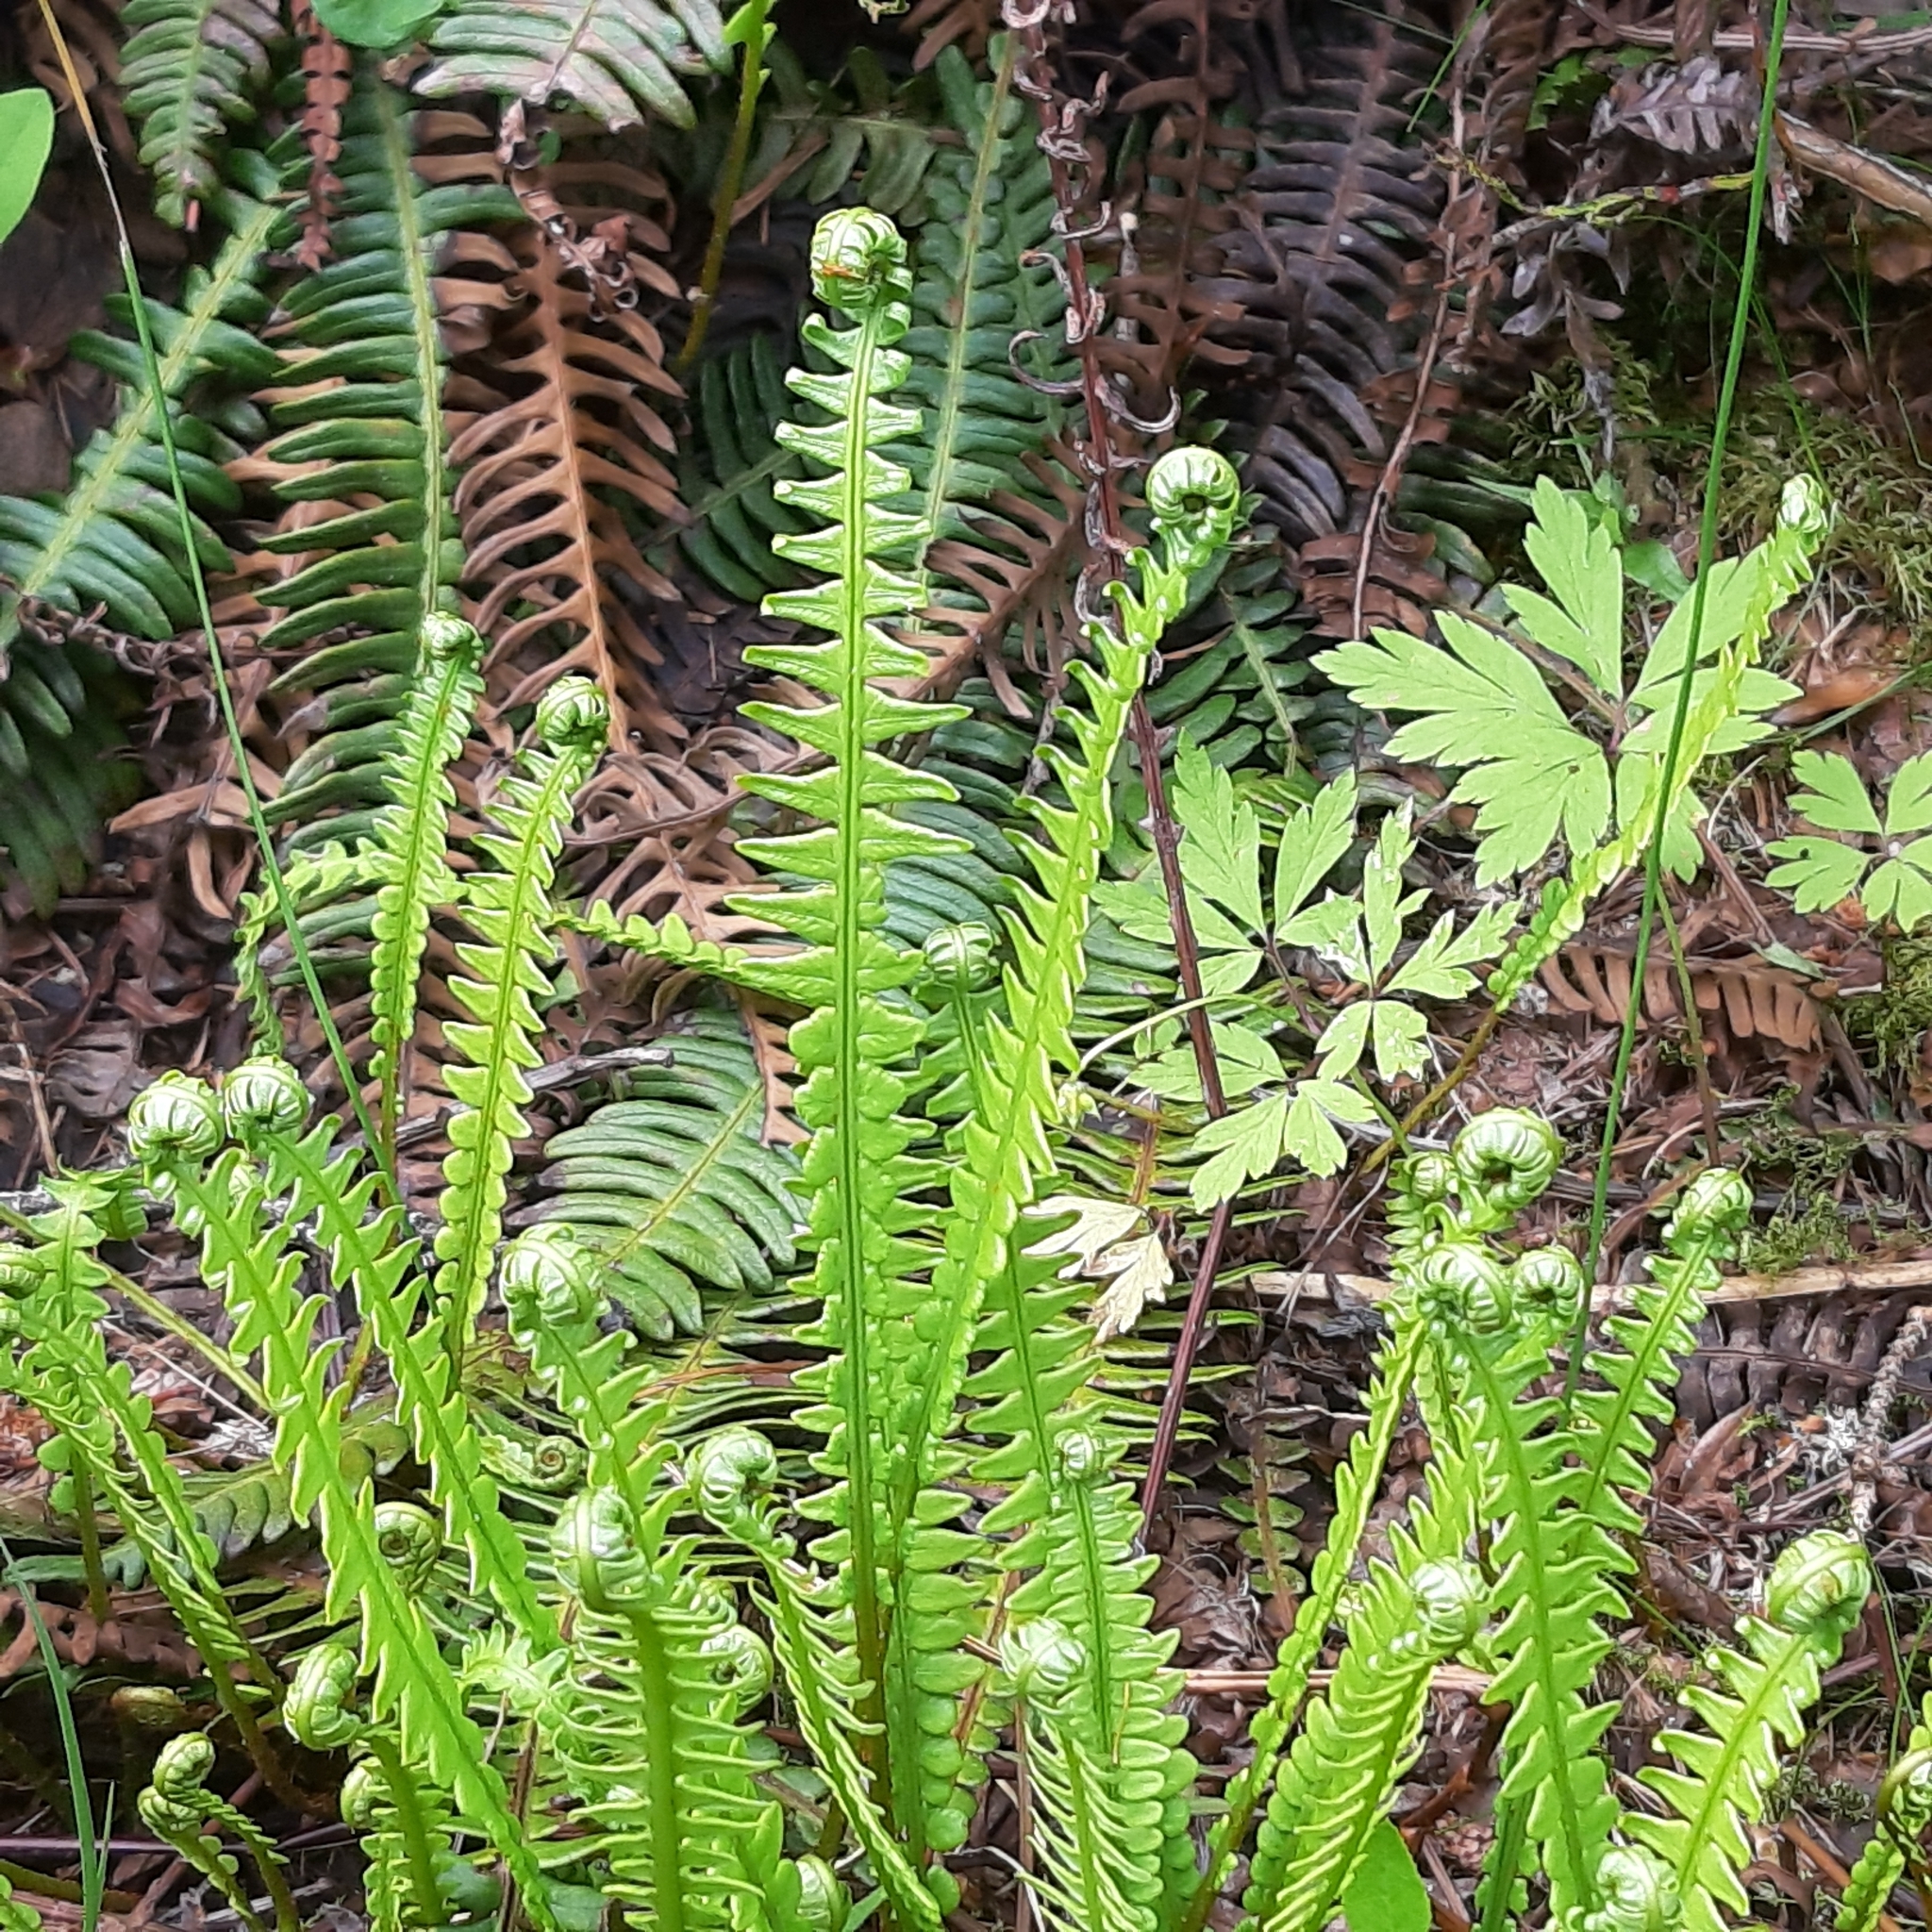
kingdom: Plantae
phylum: Tracheophyta
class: Polypodiopsida
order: Polypodiales
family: Blechnaceae
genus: Struthiopteris
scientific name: Struthiopteris spicant
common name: Deer fern
